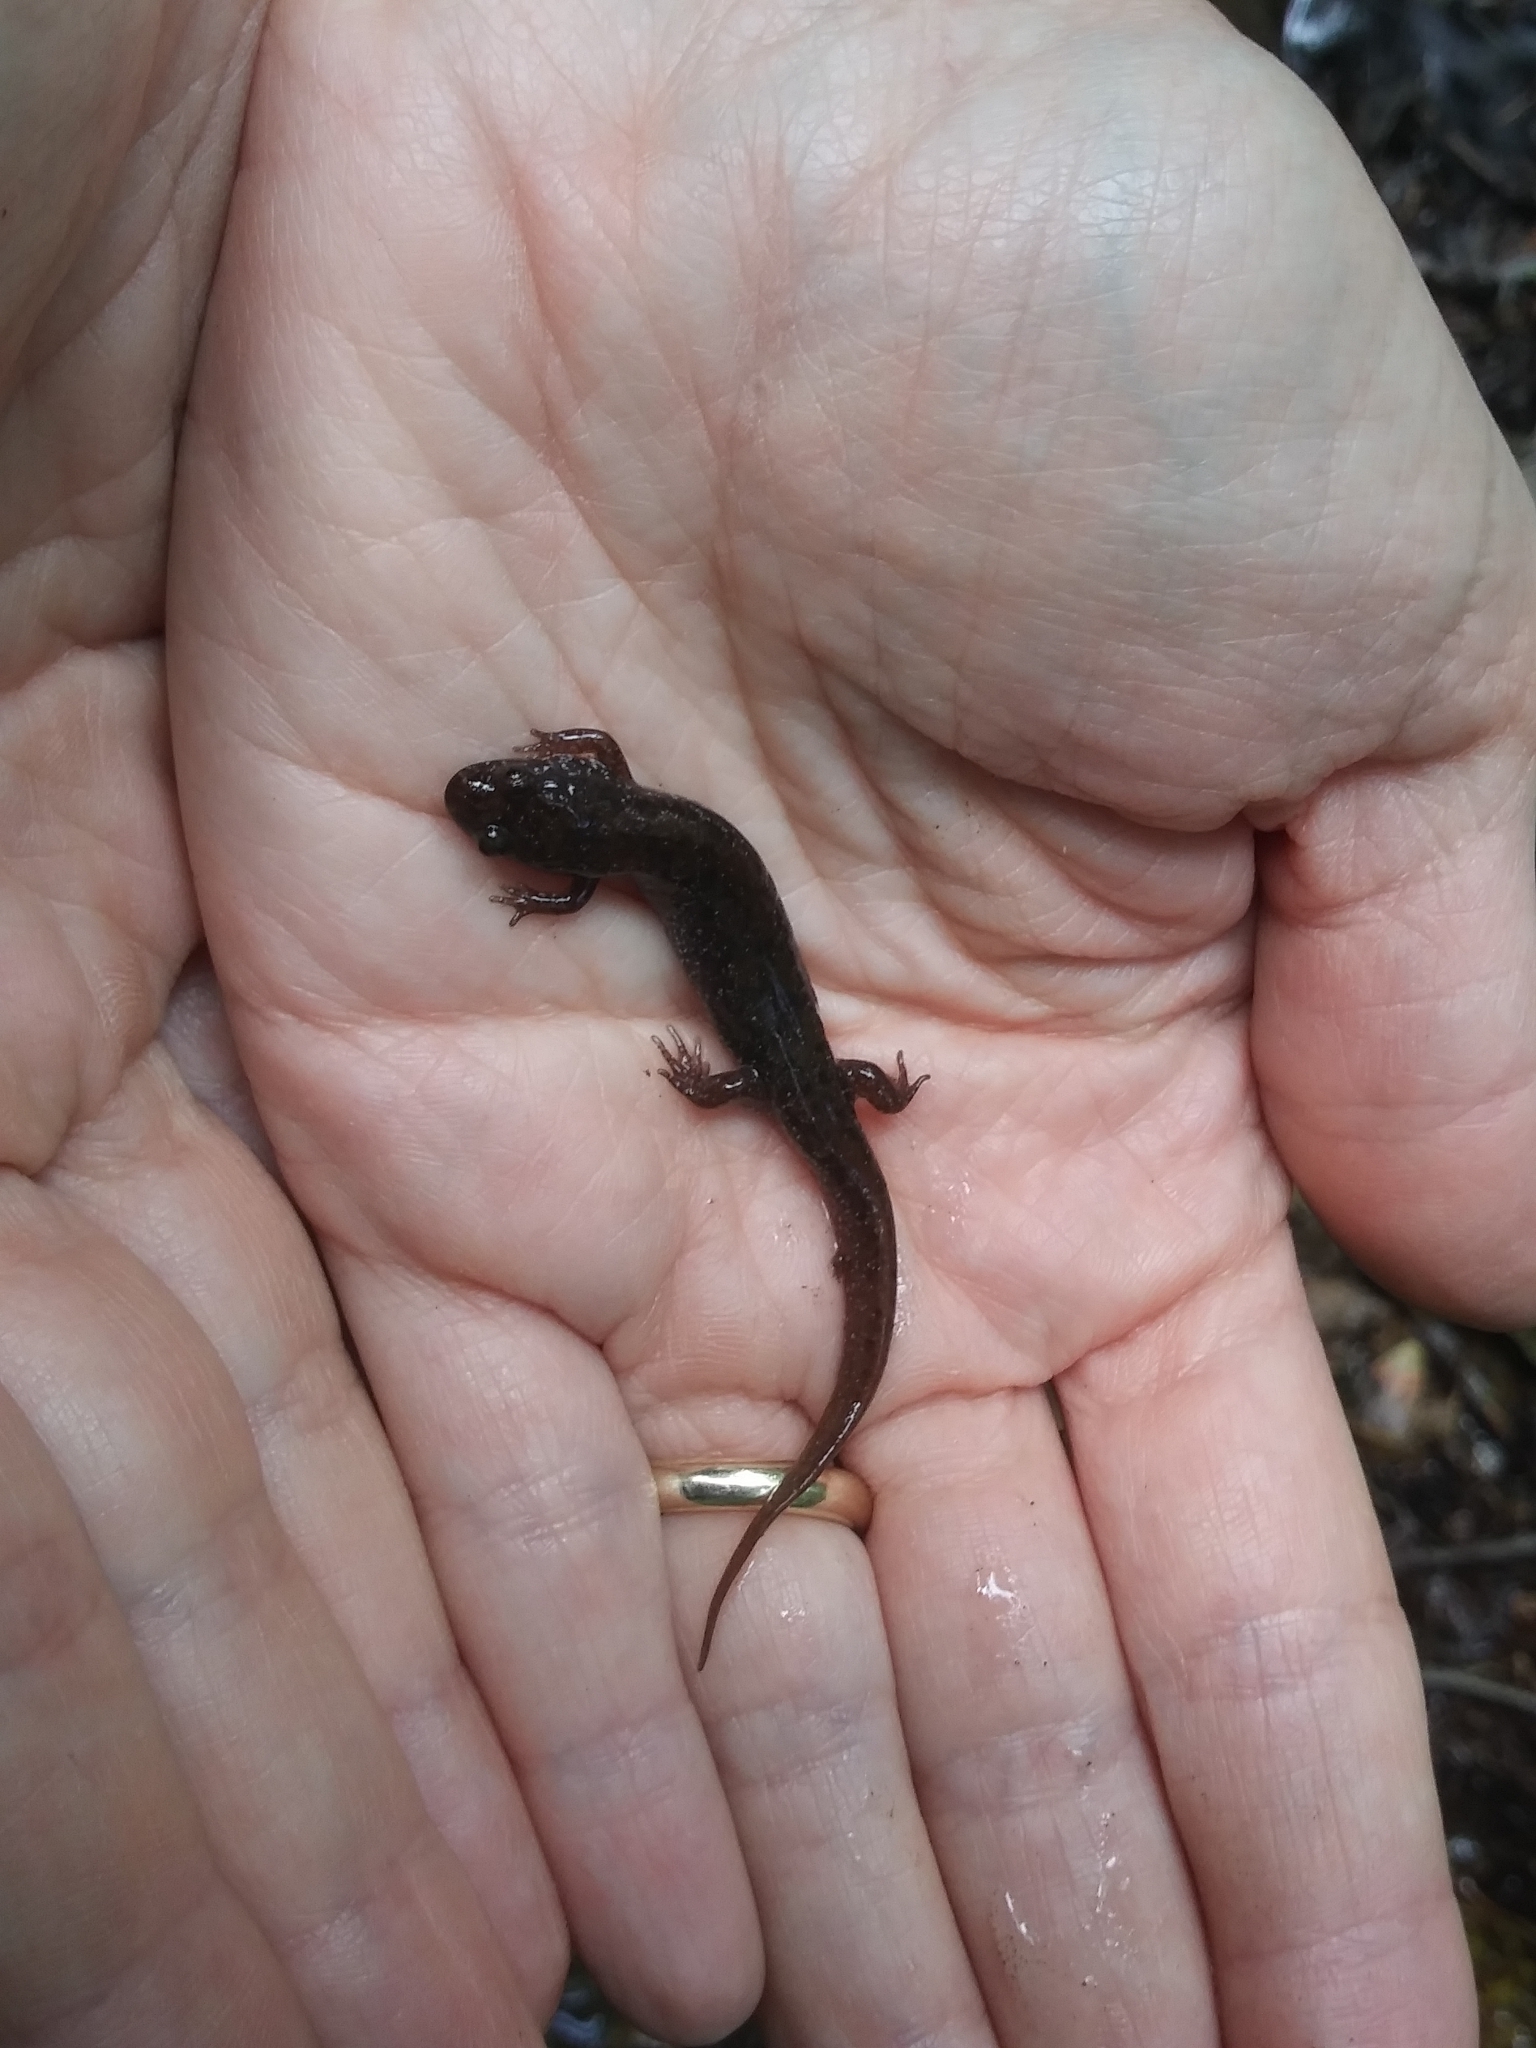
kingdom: Animalia
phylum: Chordata
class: Amphibia
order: Caudata
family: Plethodontidae
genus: Desmognathus
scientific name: Desmognathus fuscus
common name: Northern dusky salamander
